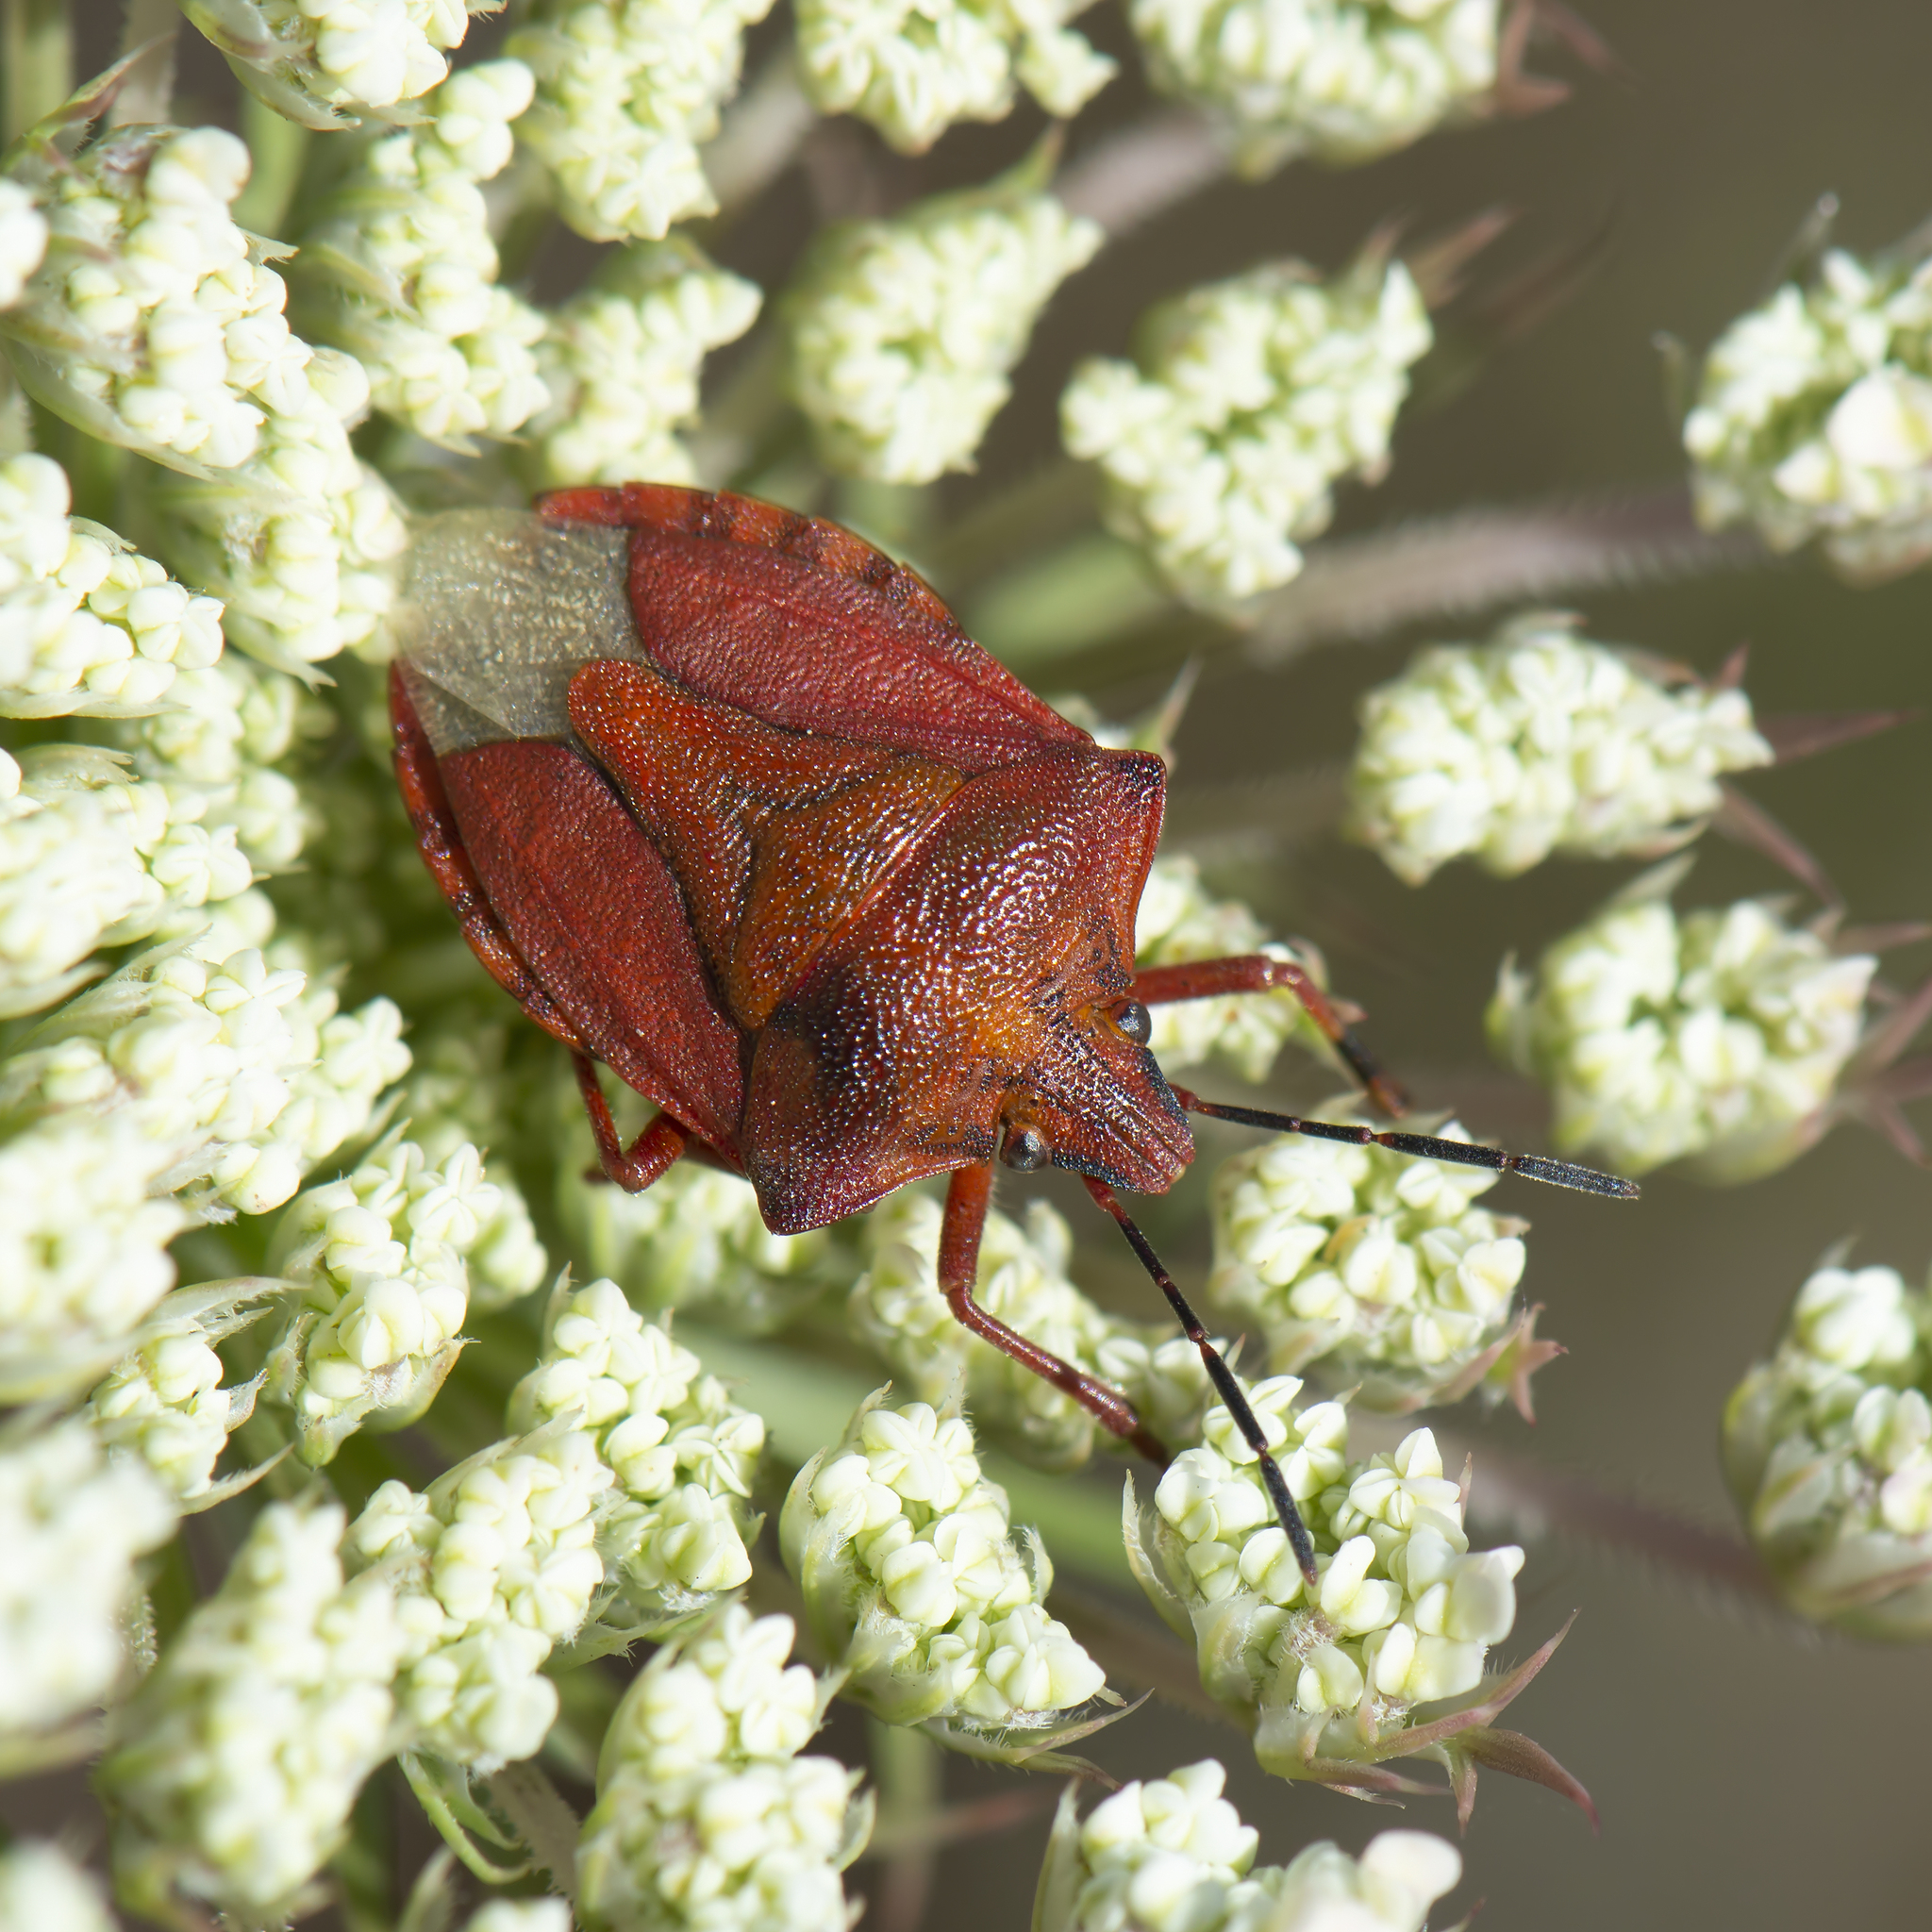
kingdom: Animalia
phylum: Arthropoda
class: Insecta
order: Hemiptera
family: Pentatomidae
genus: Carpocoris
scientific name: Carpocoris mediterraneus
